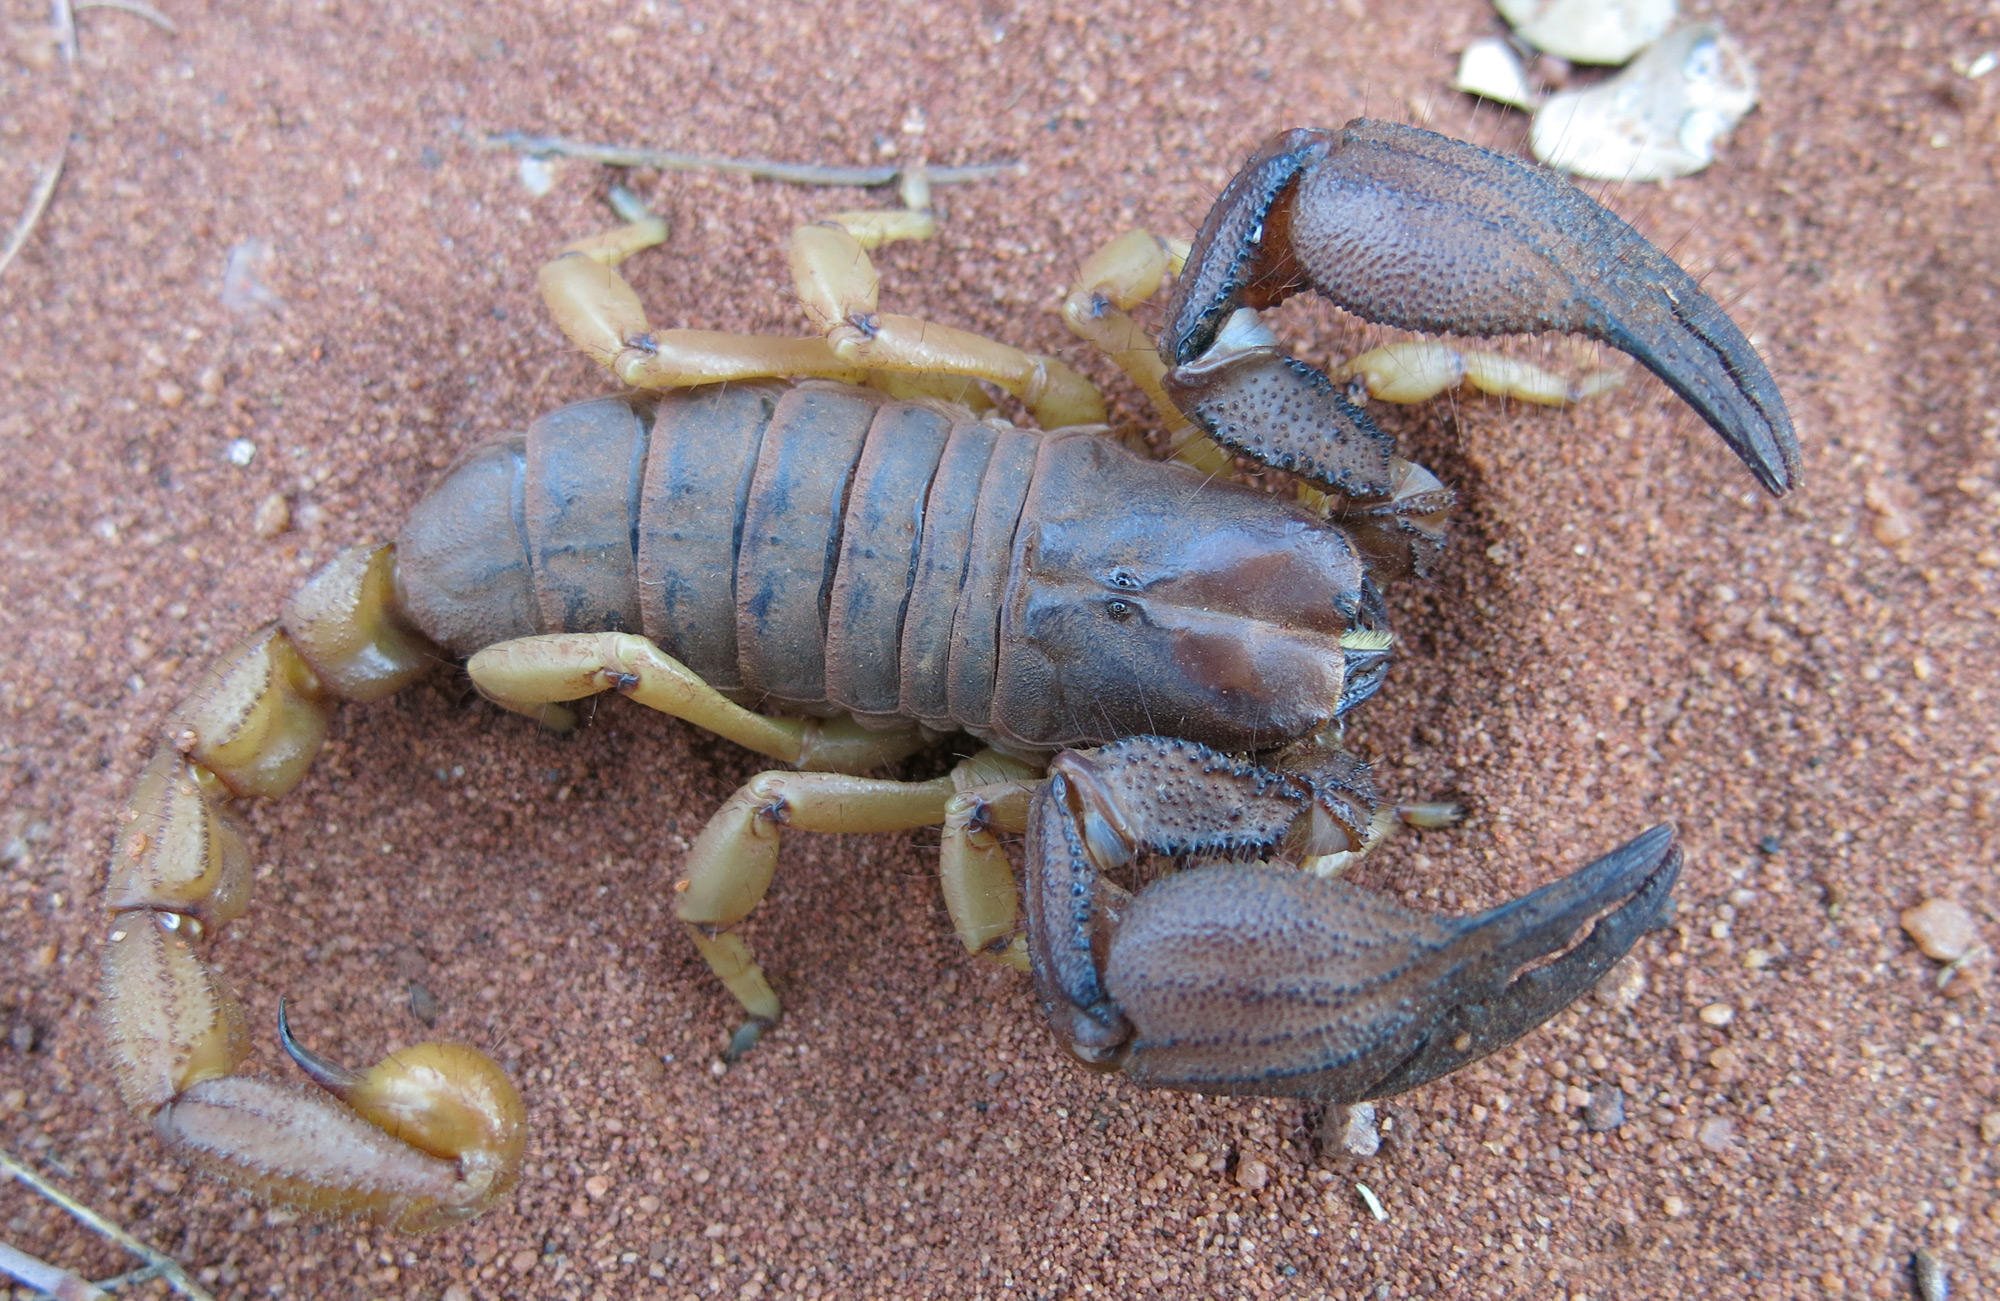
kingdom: Animalia
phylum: Arthropoda
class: Arachnida
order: Scorpiones
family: Scorpionidae
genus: Opistophthalmus
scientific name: Opistophthalmus glabrifrons
